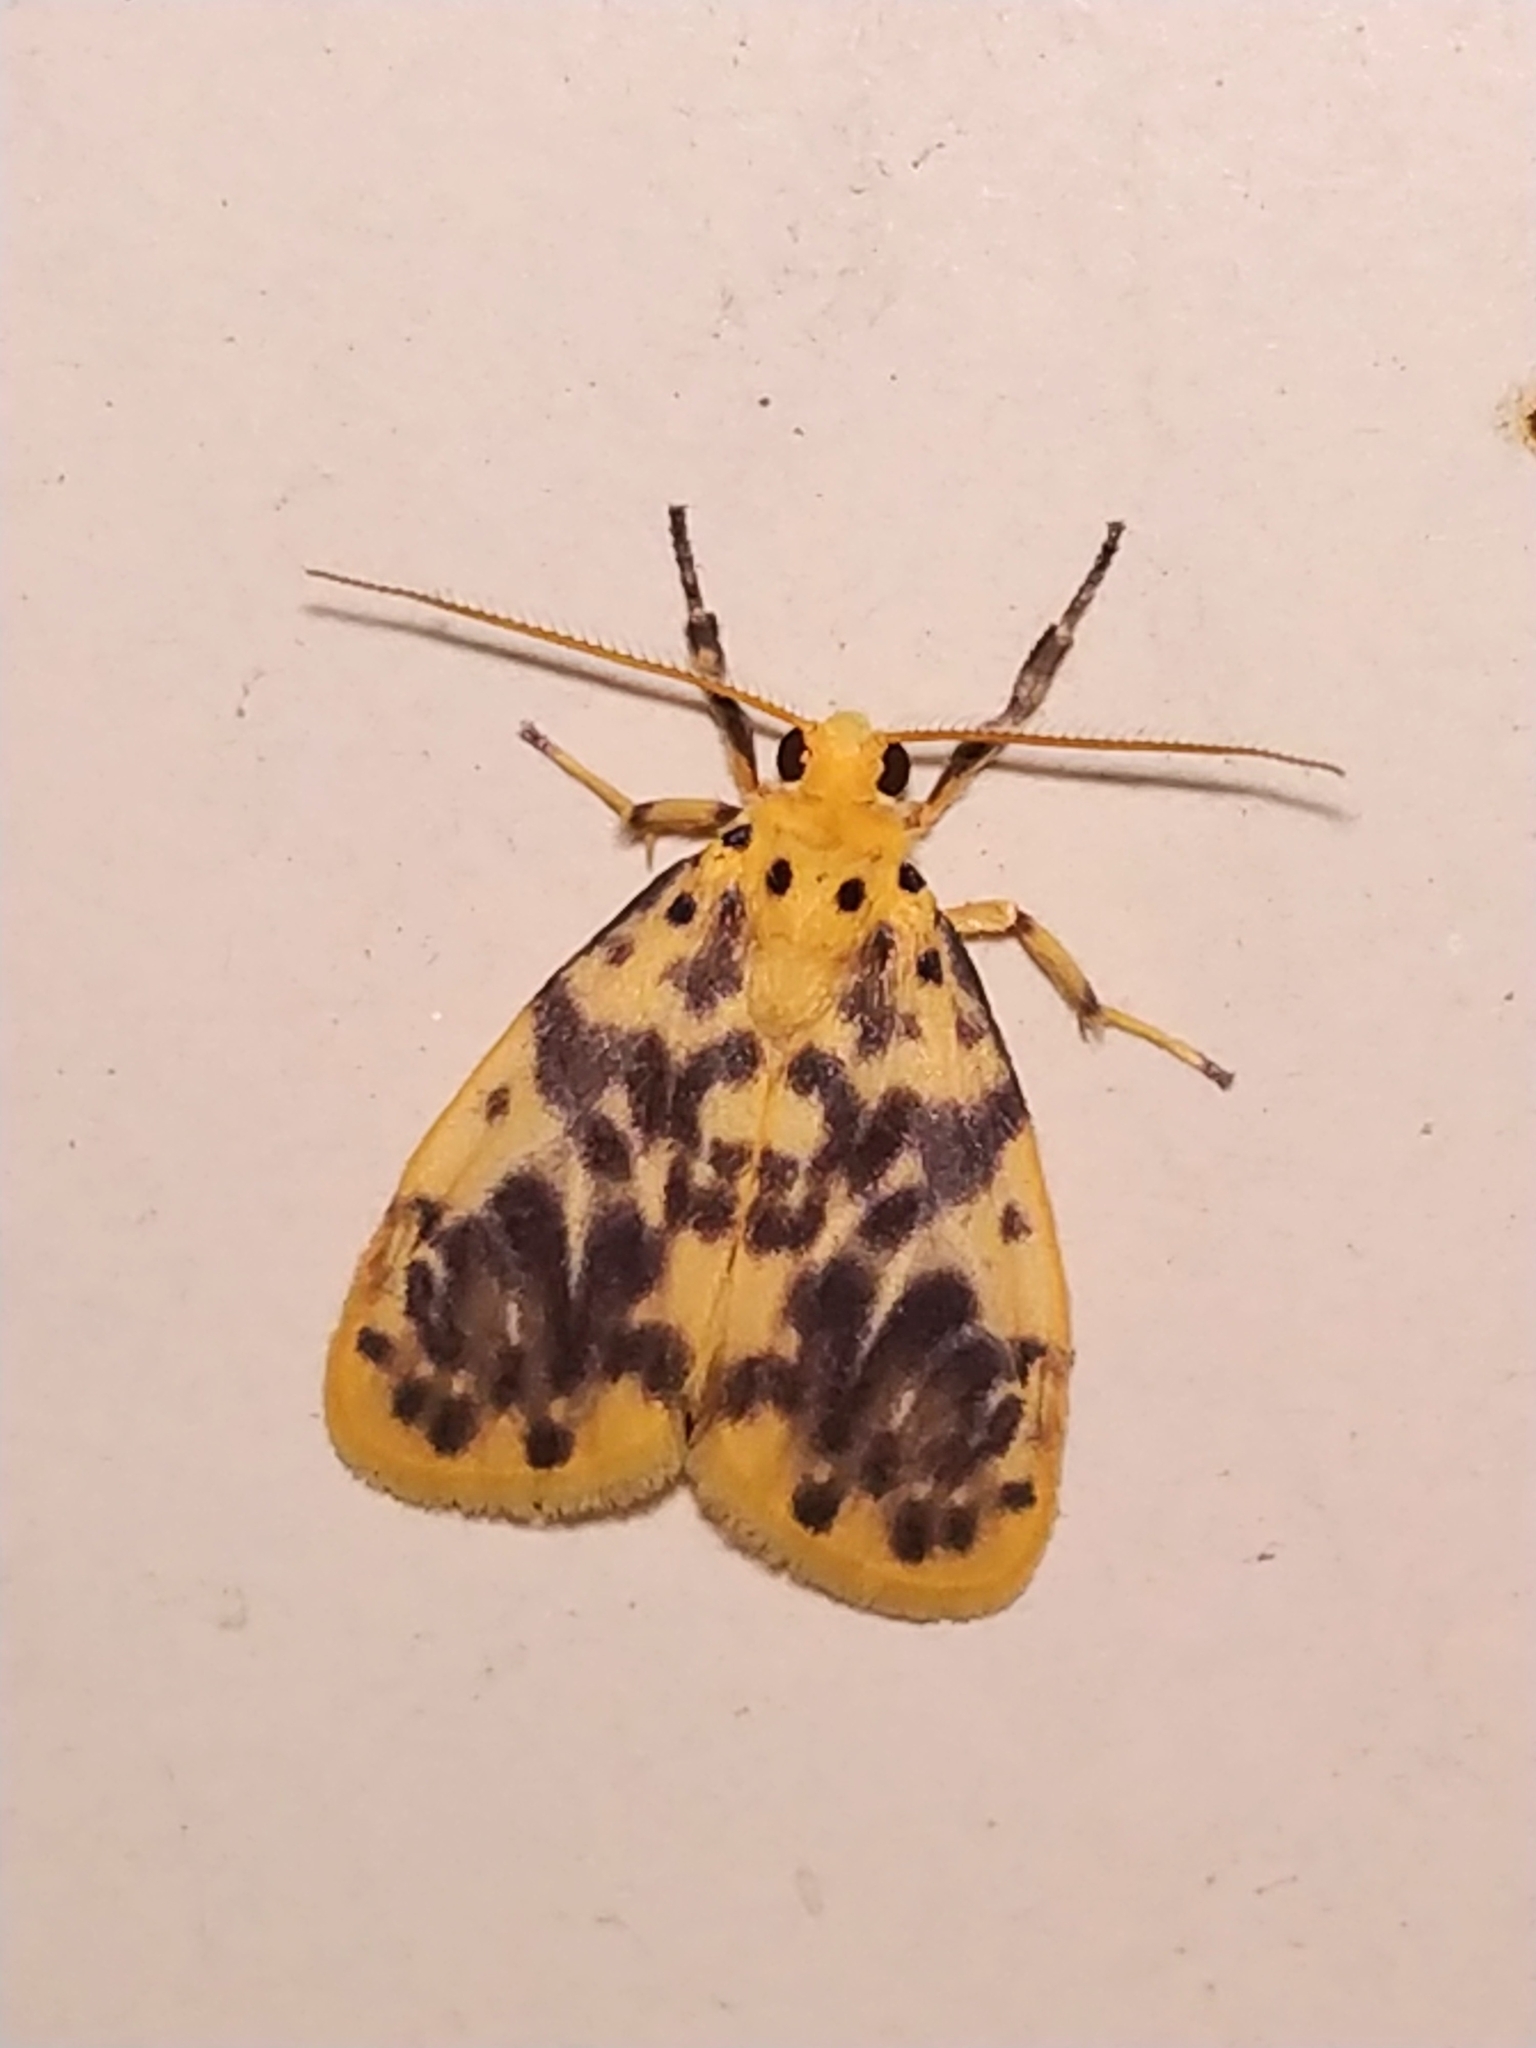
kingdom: Animalia
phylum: Arthropoda
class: Insecta
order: Lepidoptera
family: Erebidae
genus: Miltochrista
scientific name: Miltochrista semifascia
